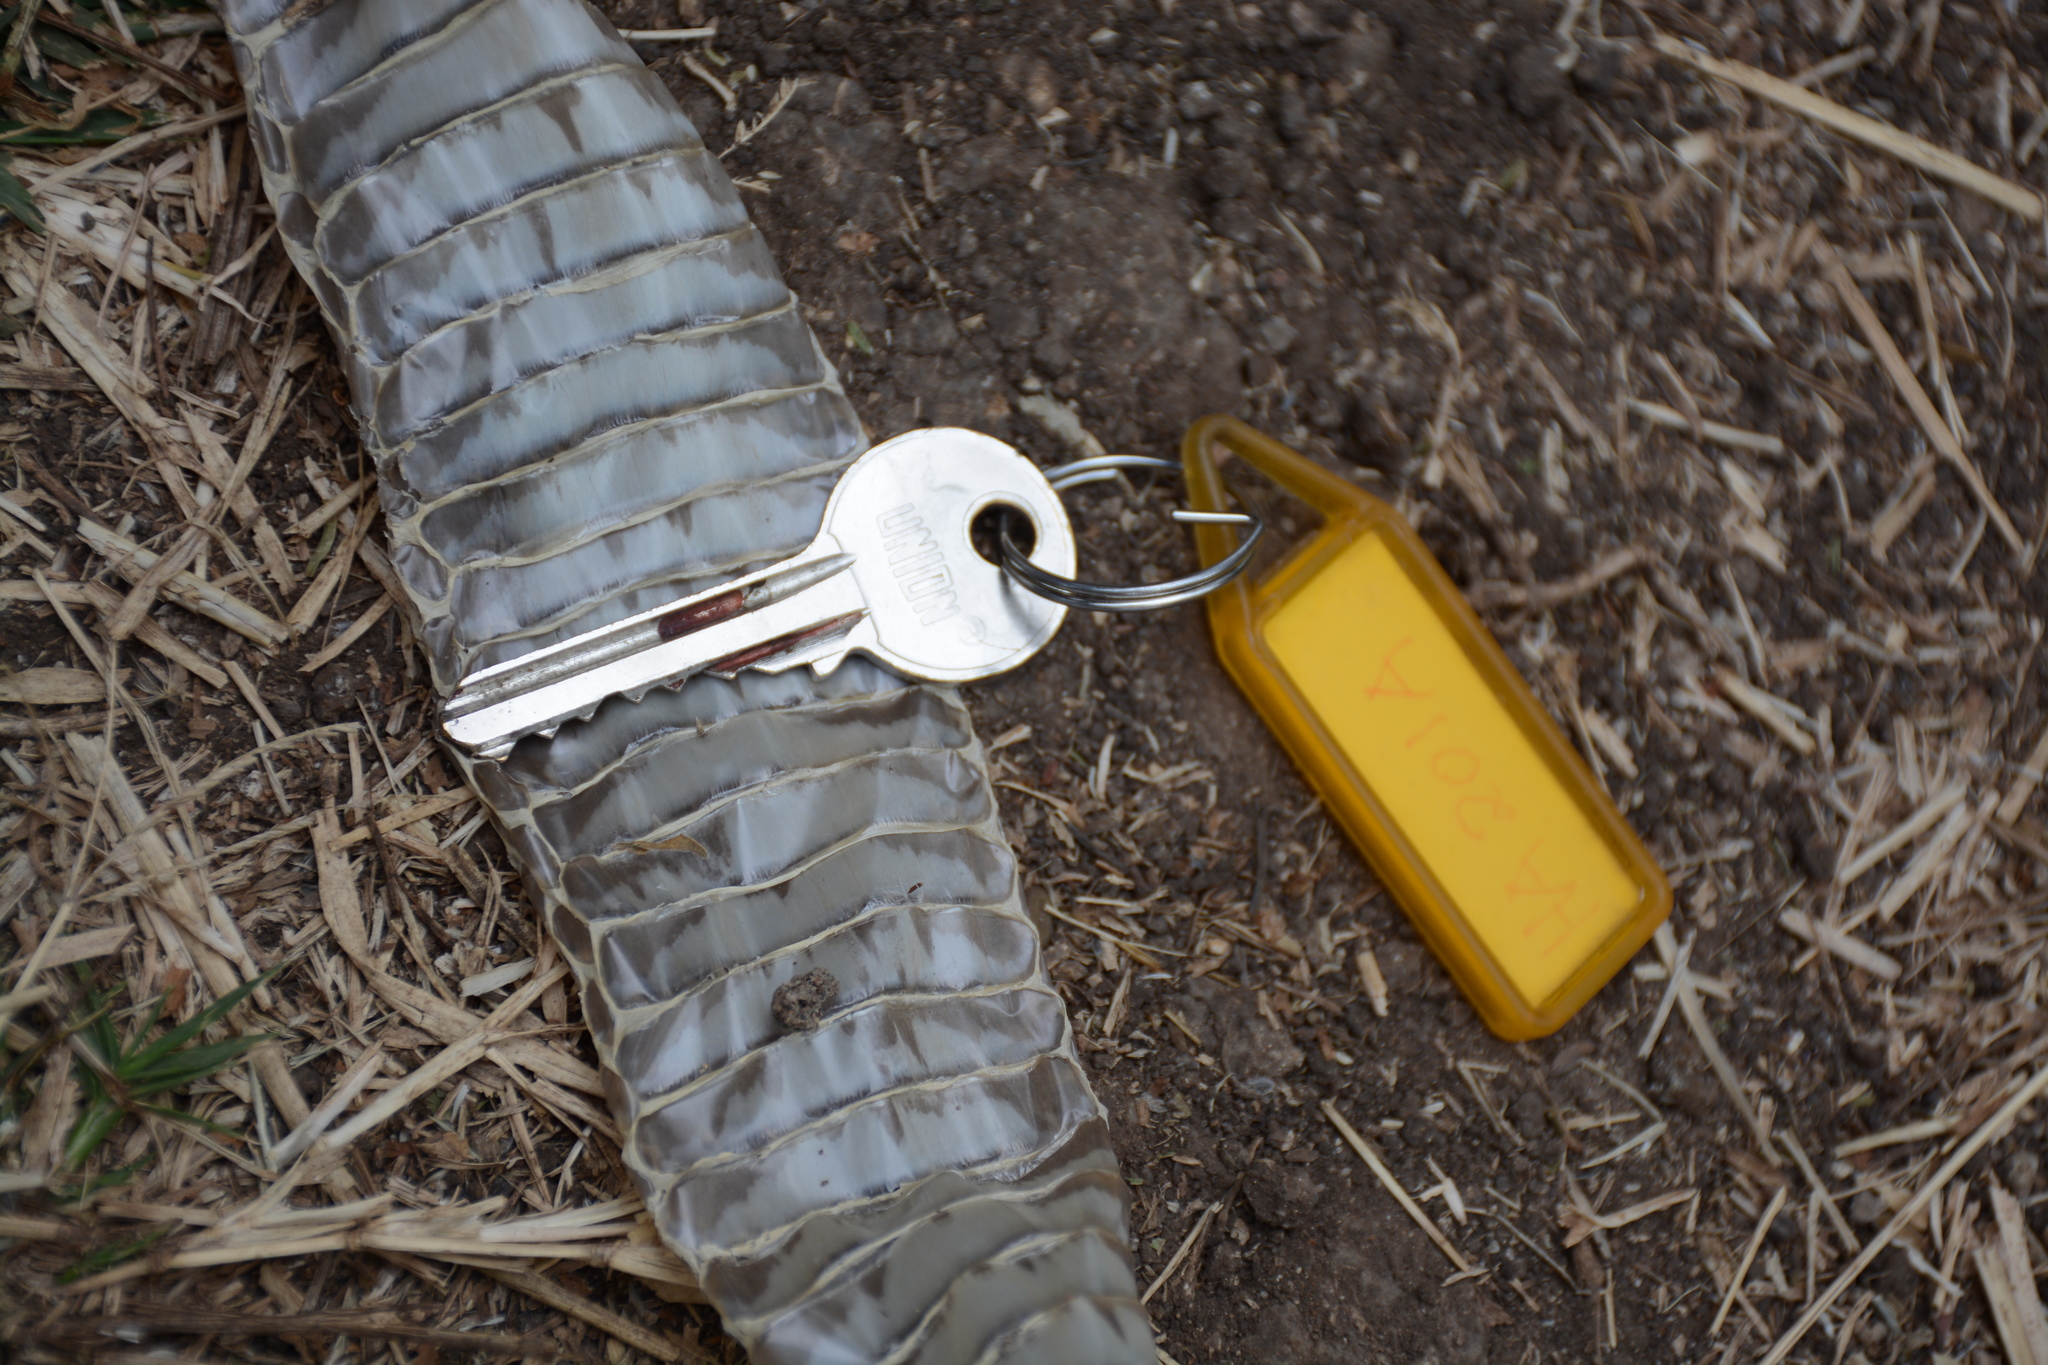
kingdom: Animalia
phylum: Chordata
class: Squamata
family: Elapidae
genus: Naja
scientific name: Naja nigricollis
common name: Black-necked spitting cobra
